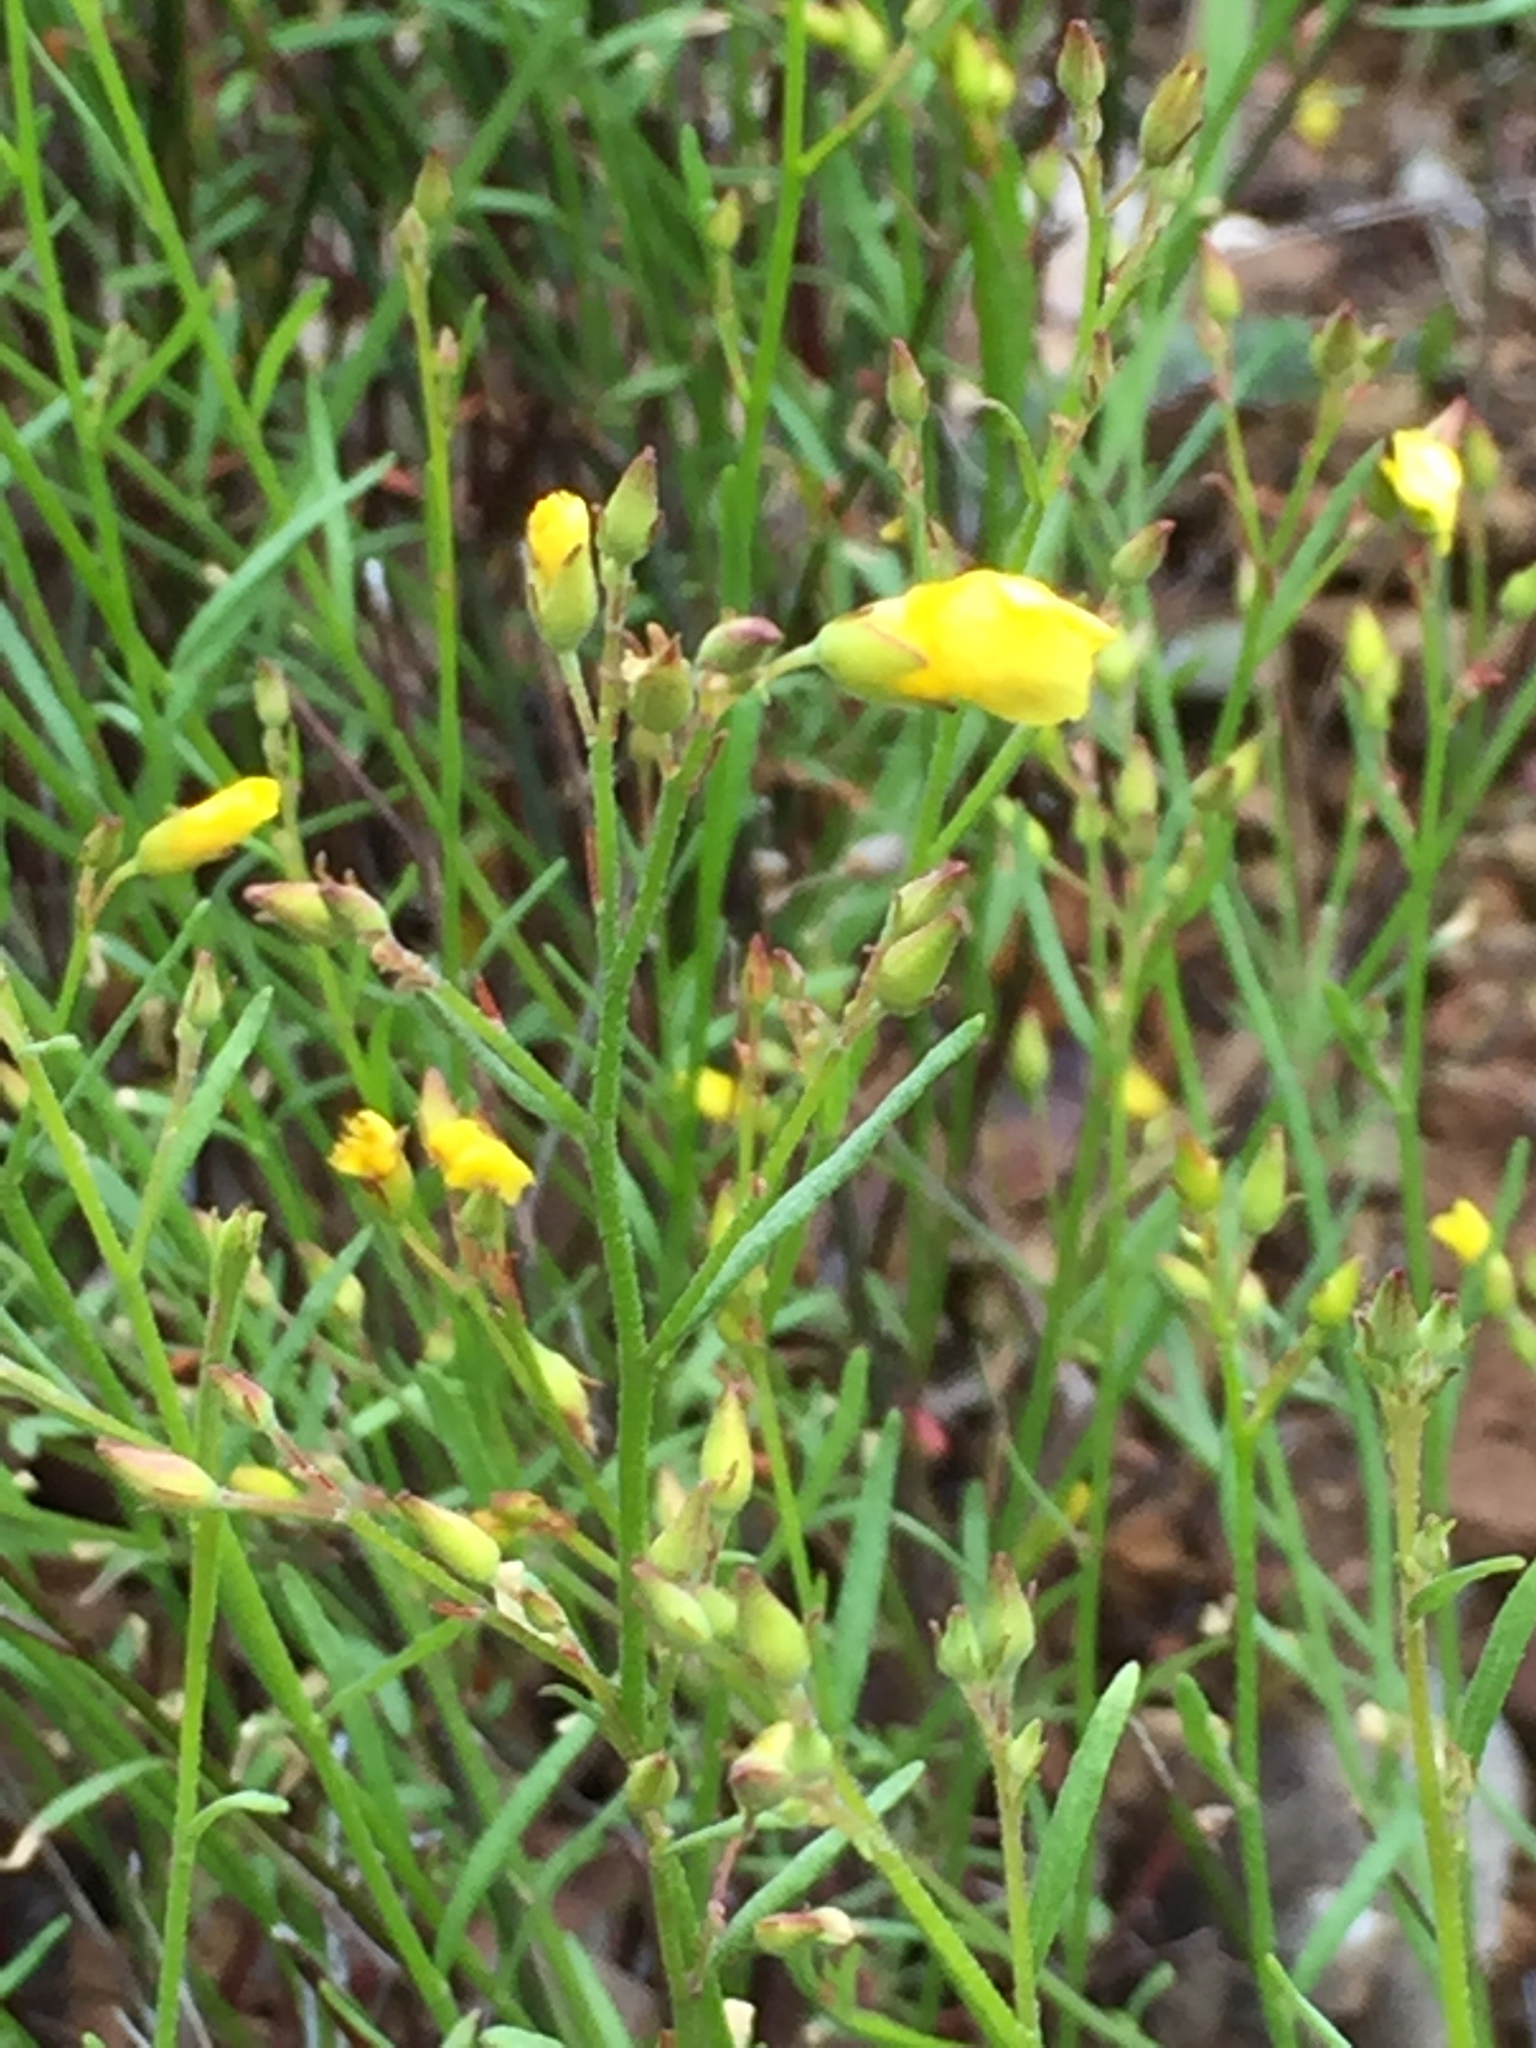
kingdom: Plantae
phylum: Tracheophyta
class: Magnoliopsida
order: Malvales
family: Cistaceae
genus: Crocanthemum
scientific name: Crocanthemum scoparium
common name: Broom-rose
